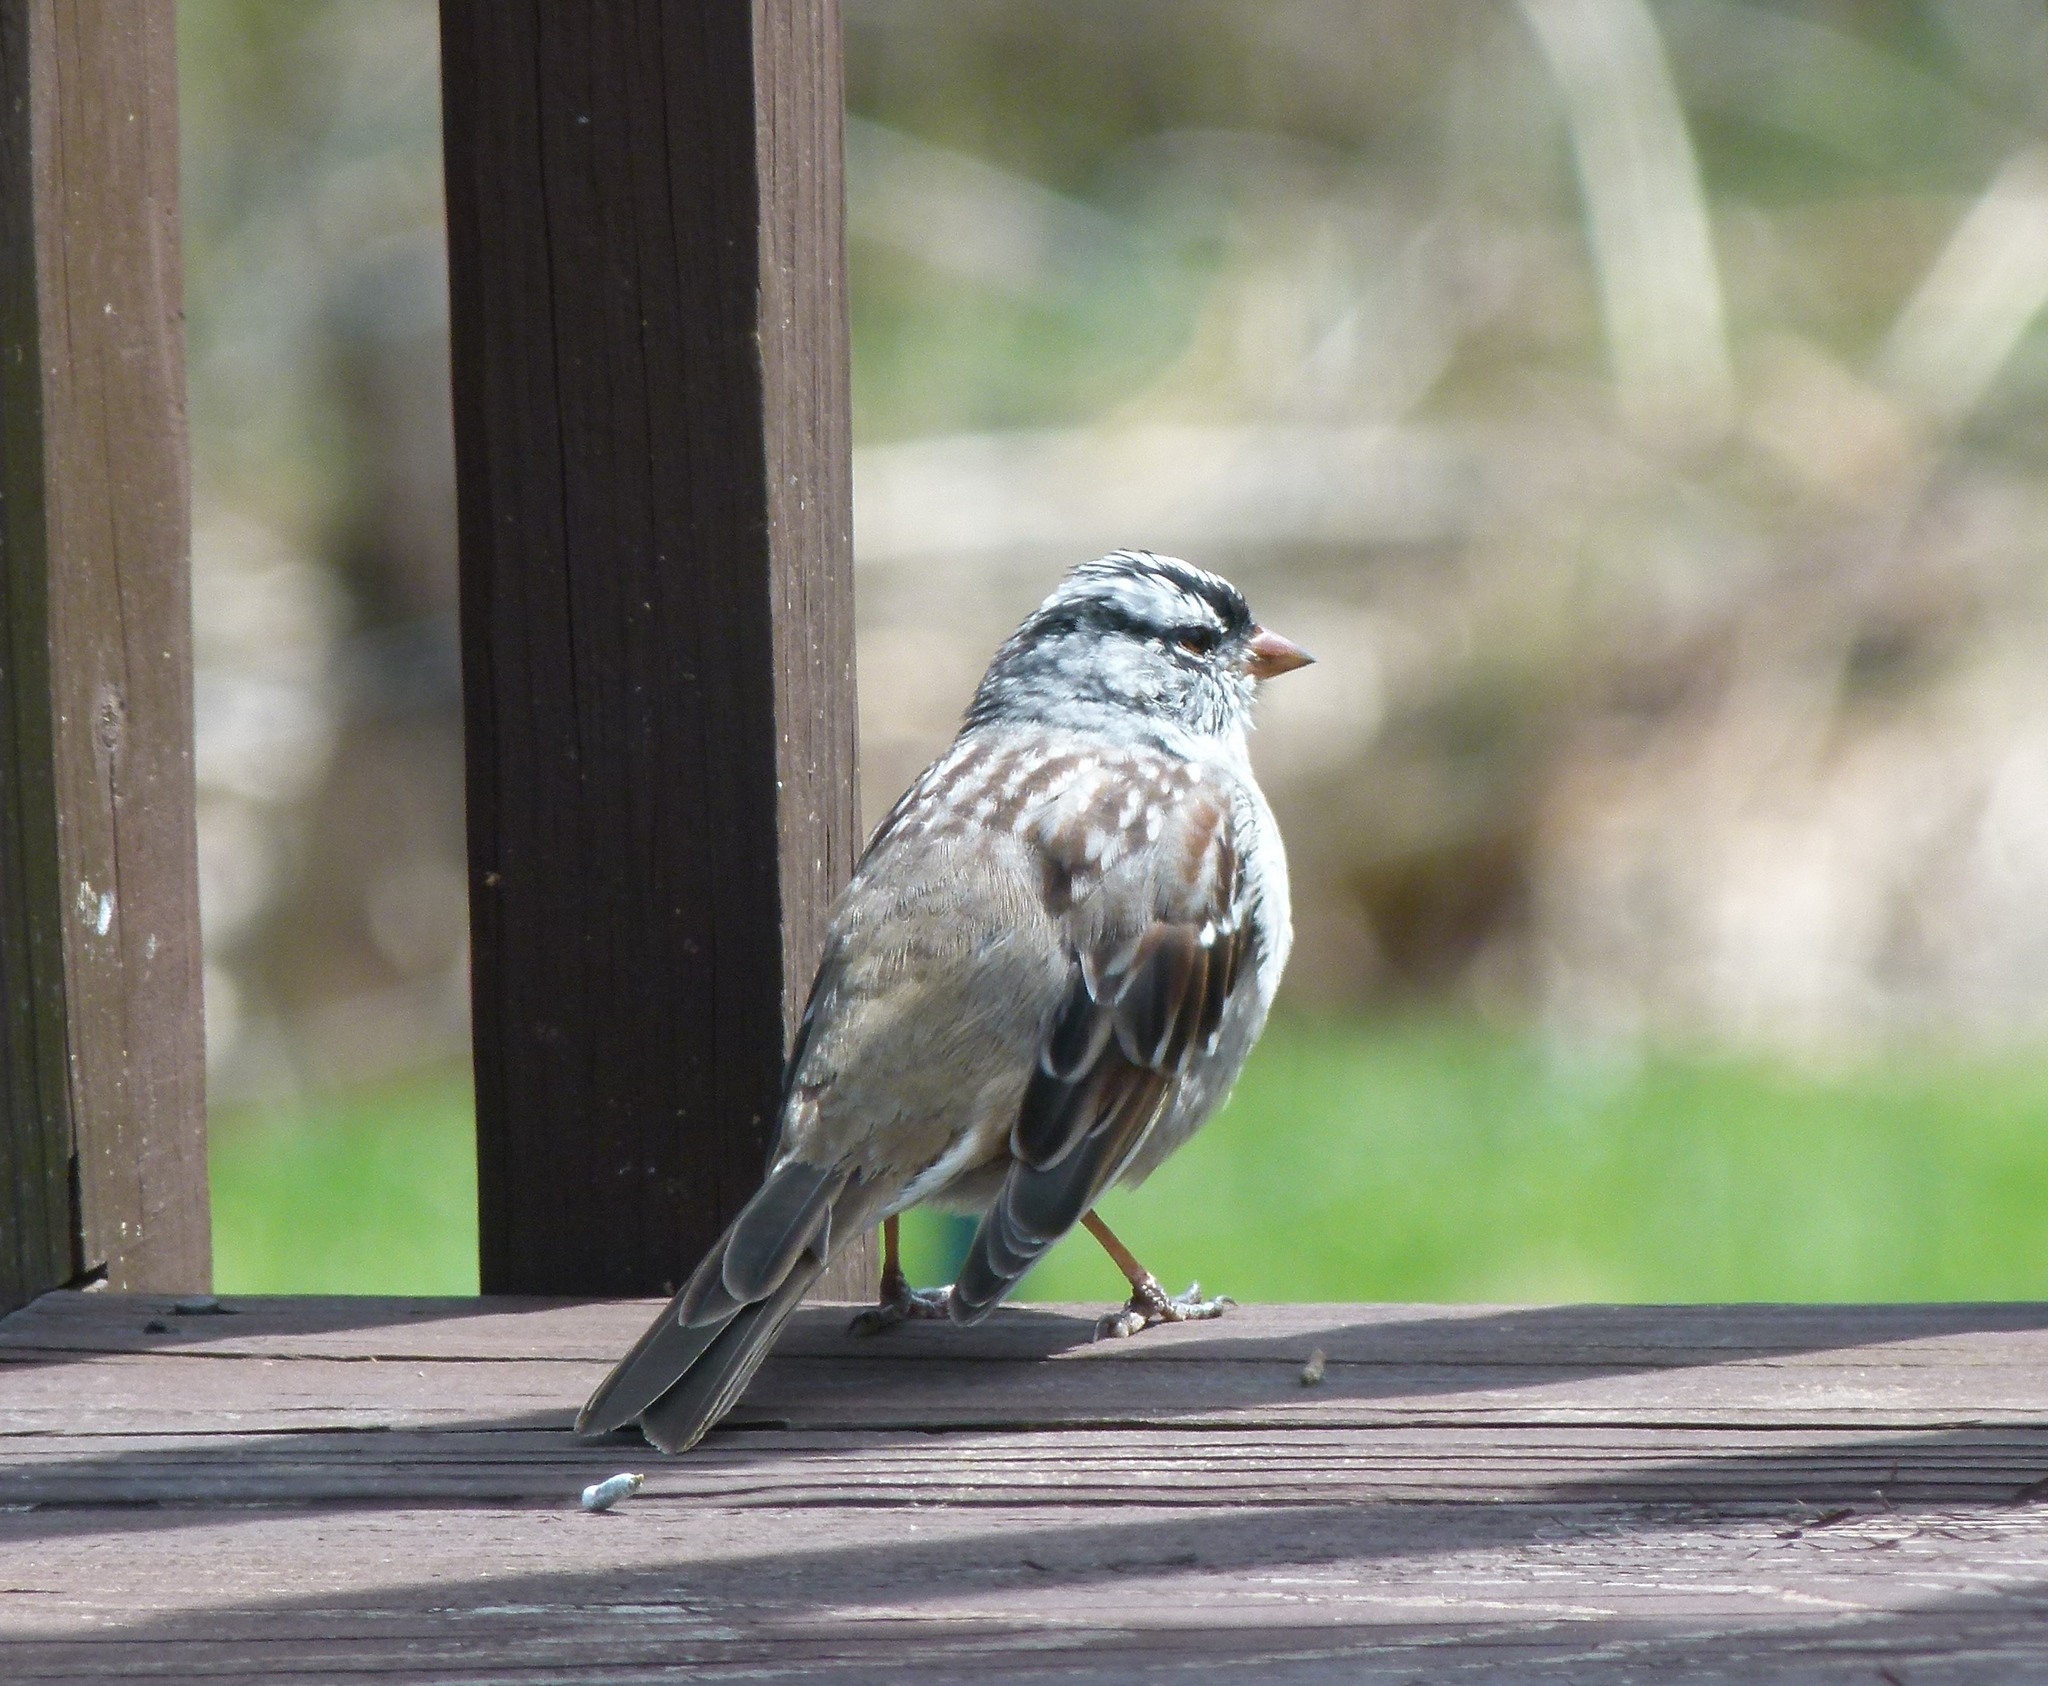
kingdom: Animalia
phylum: Chordata
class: Aves
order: Passeriformes
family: Passerellidae
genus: Zonotrichia
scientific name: Zonotrichia leucophrys
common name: White-crowned sparrow
